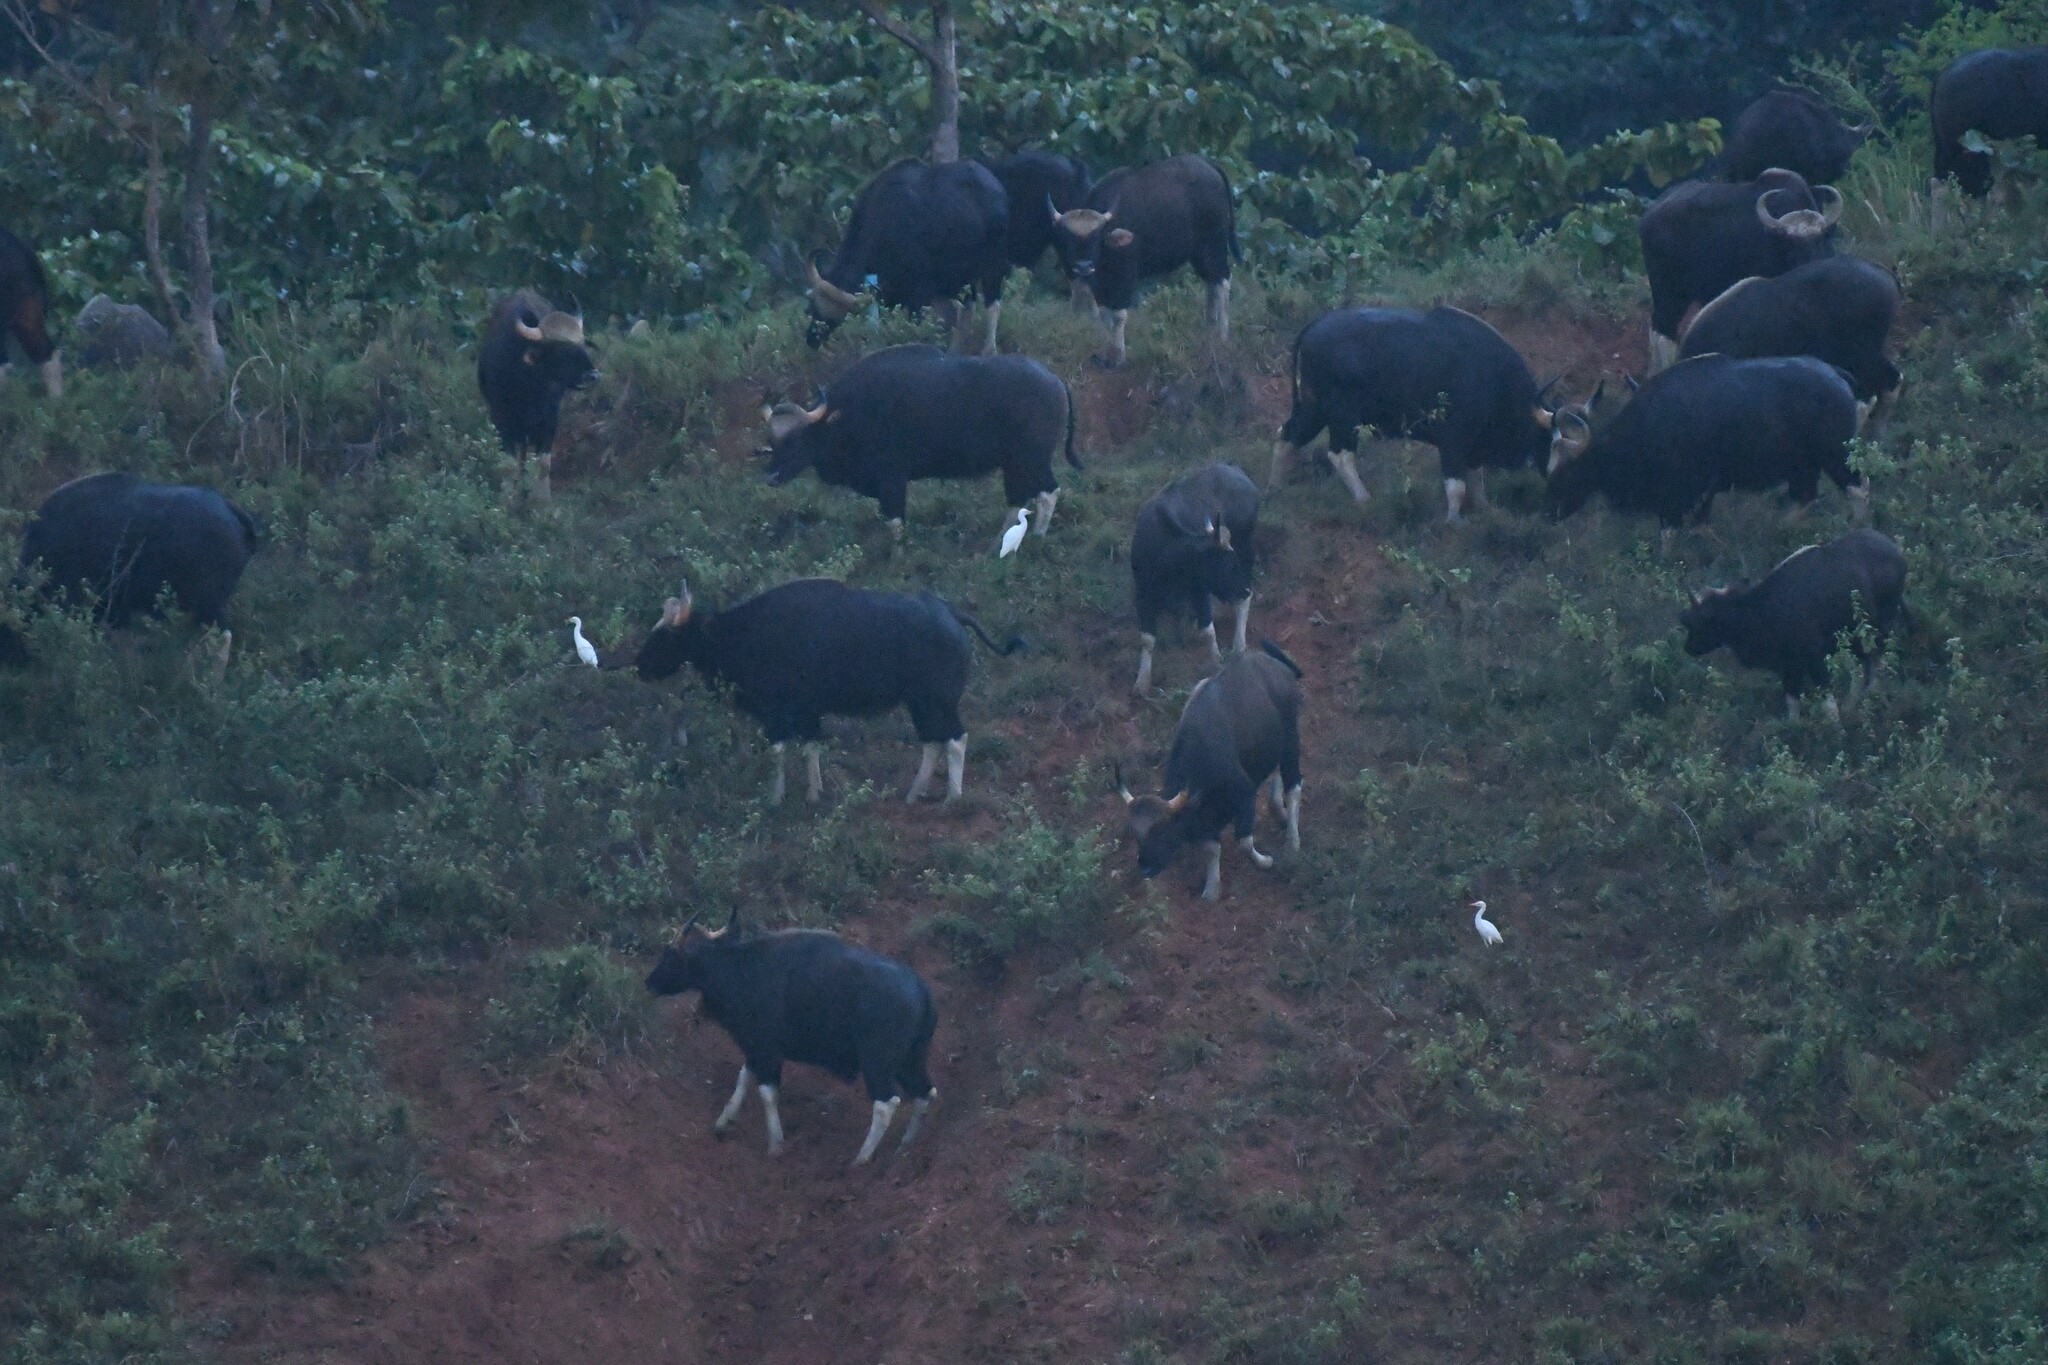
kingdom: Animalia
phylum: Chordata
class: Mammalia
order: Artiodactyla
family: Bovidae
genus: Bos
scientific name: Bos frontalis
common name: Gaur
